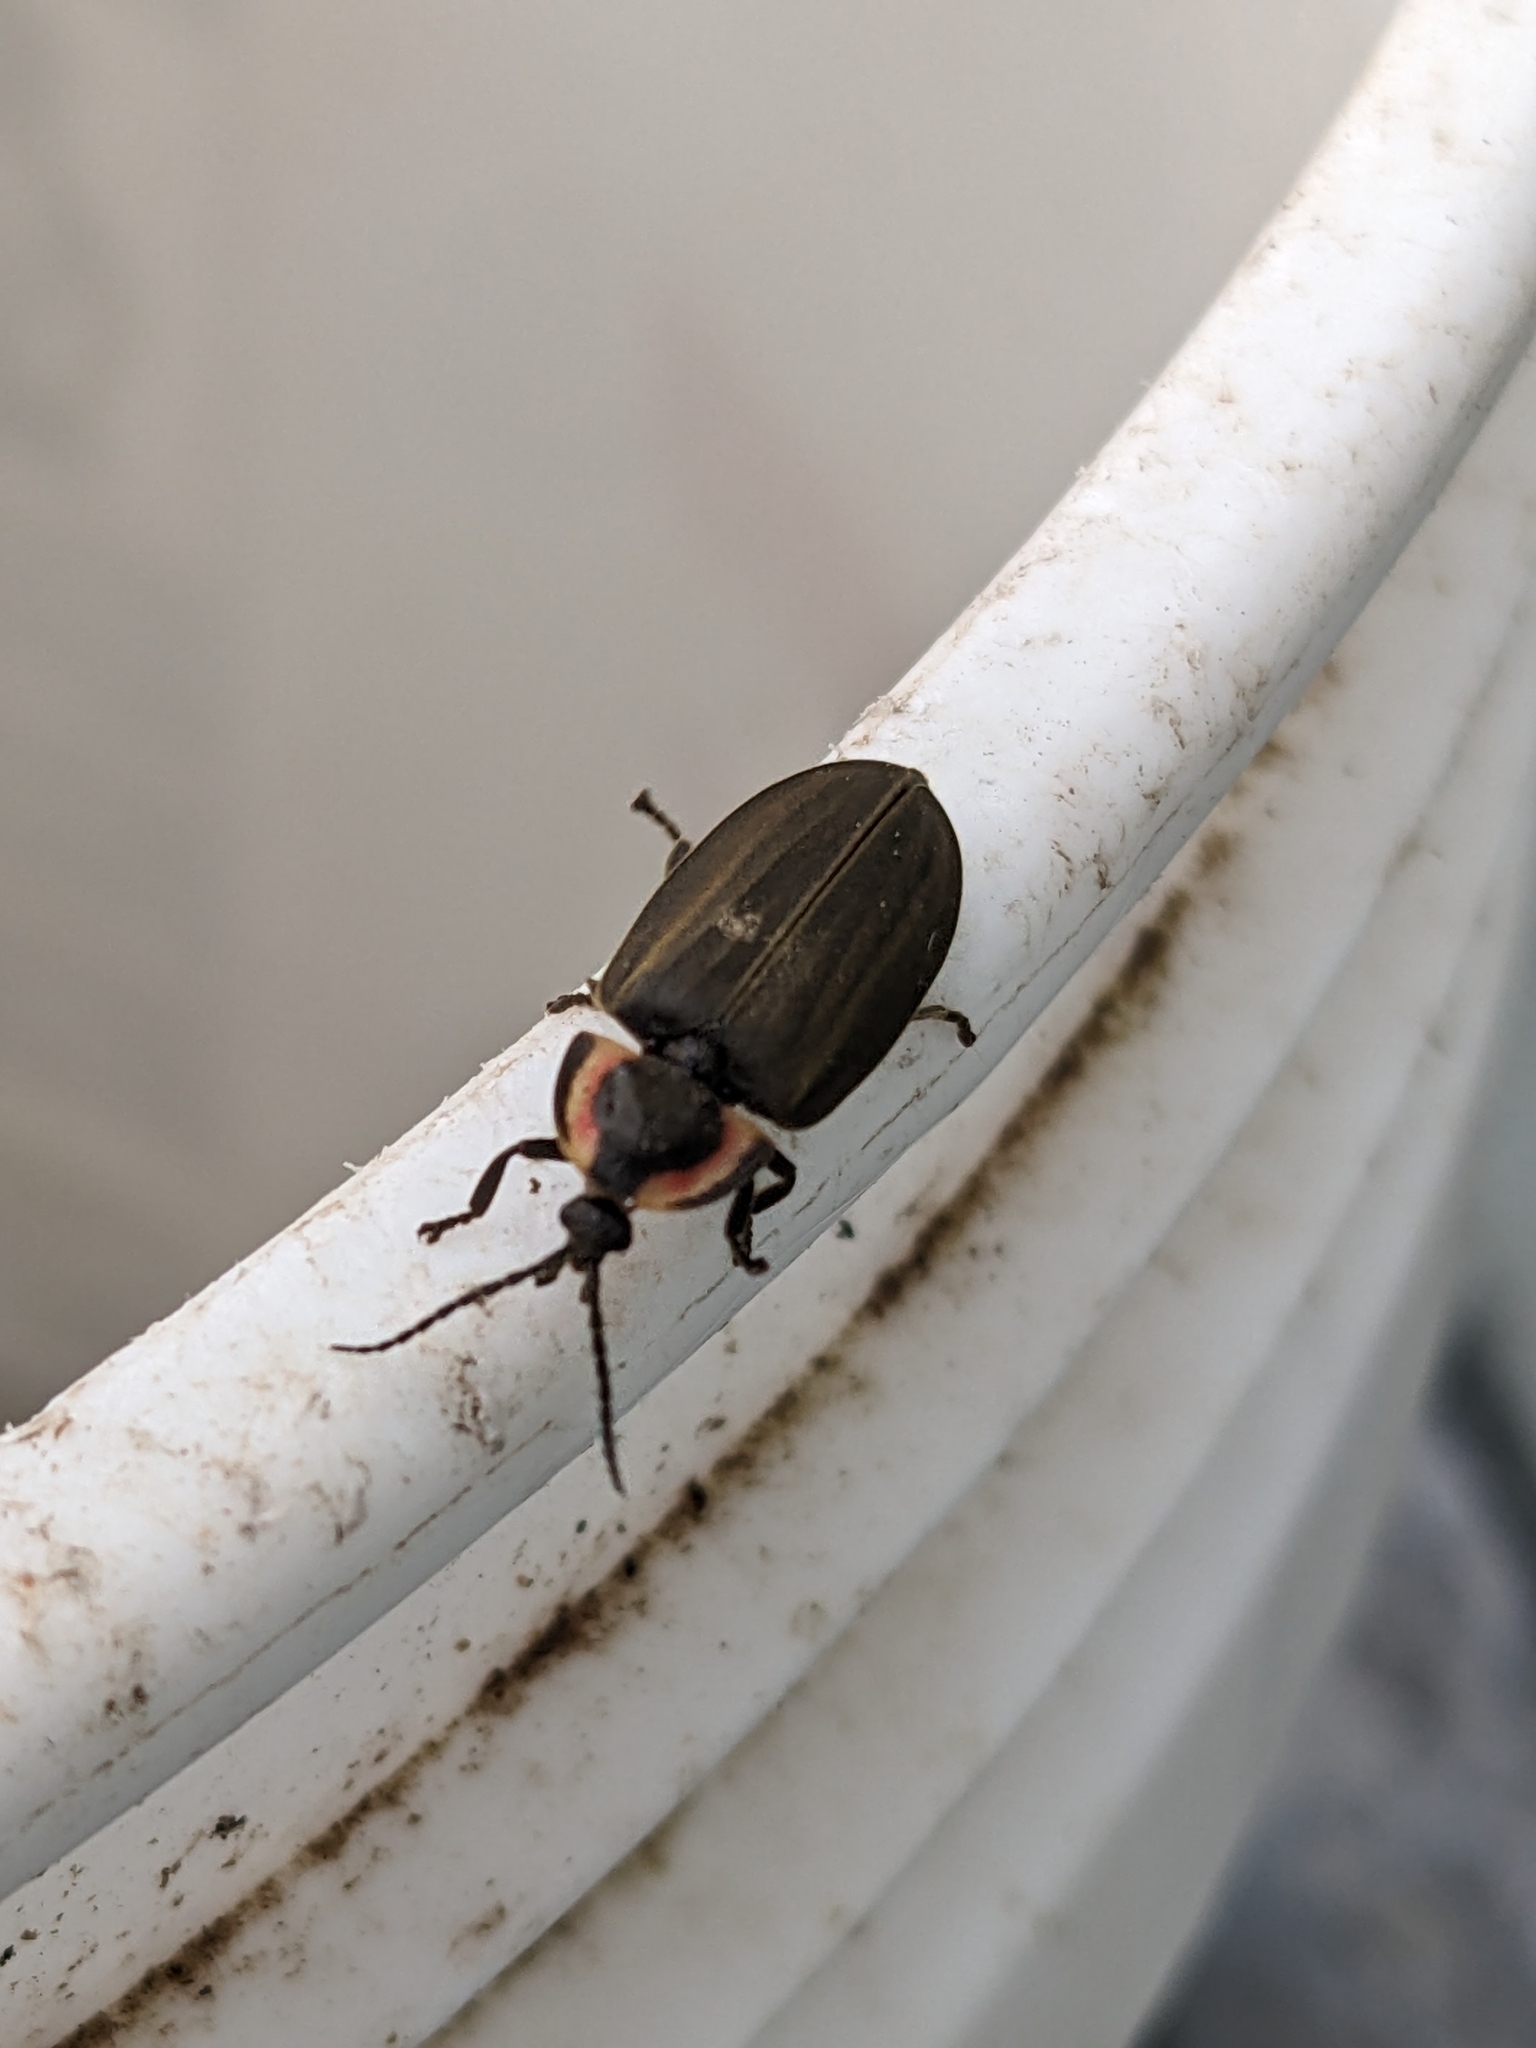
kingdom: Animalia
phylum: Arthropoda
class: Insecta
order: Coleoptera
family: Lampyridae
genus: Photinus
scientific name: Photinus corrusca
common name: Winter firefly
